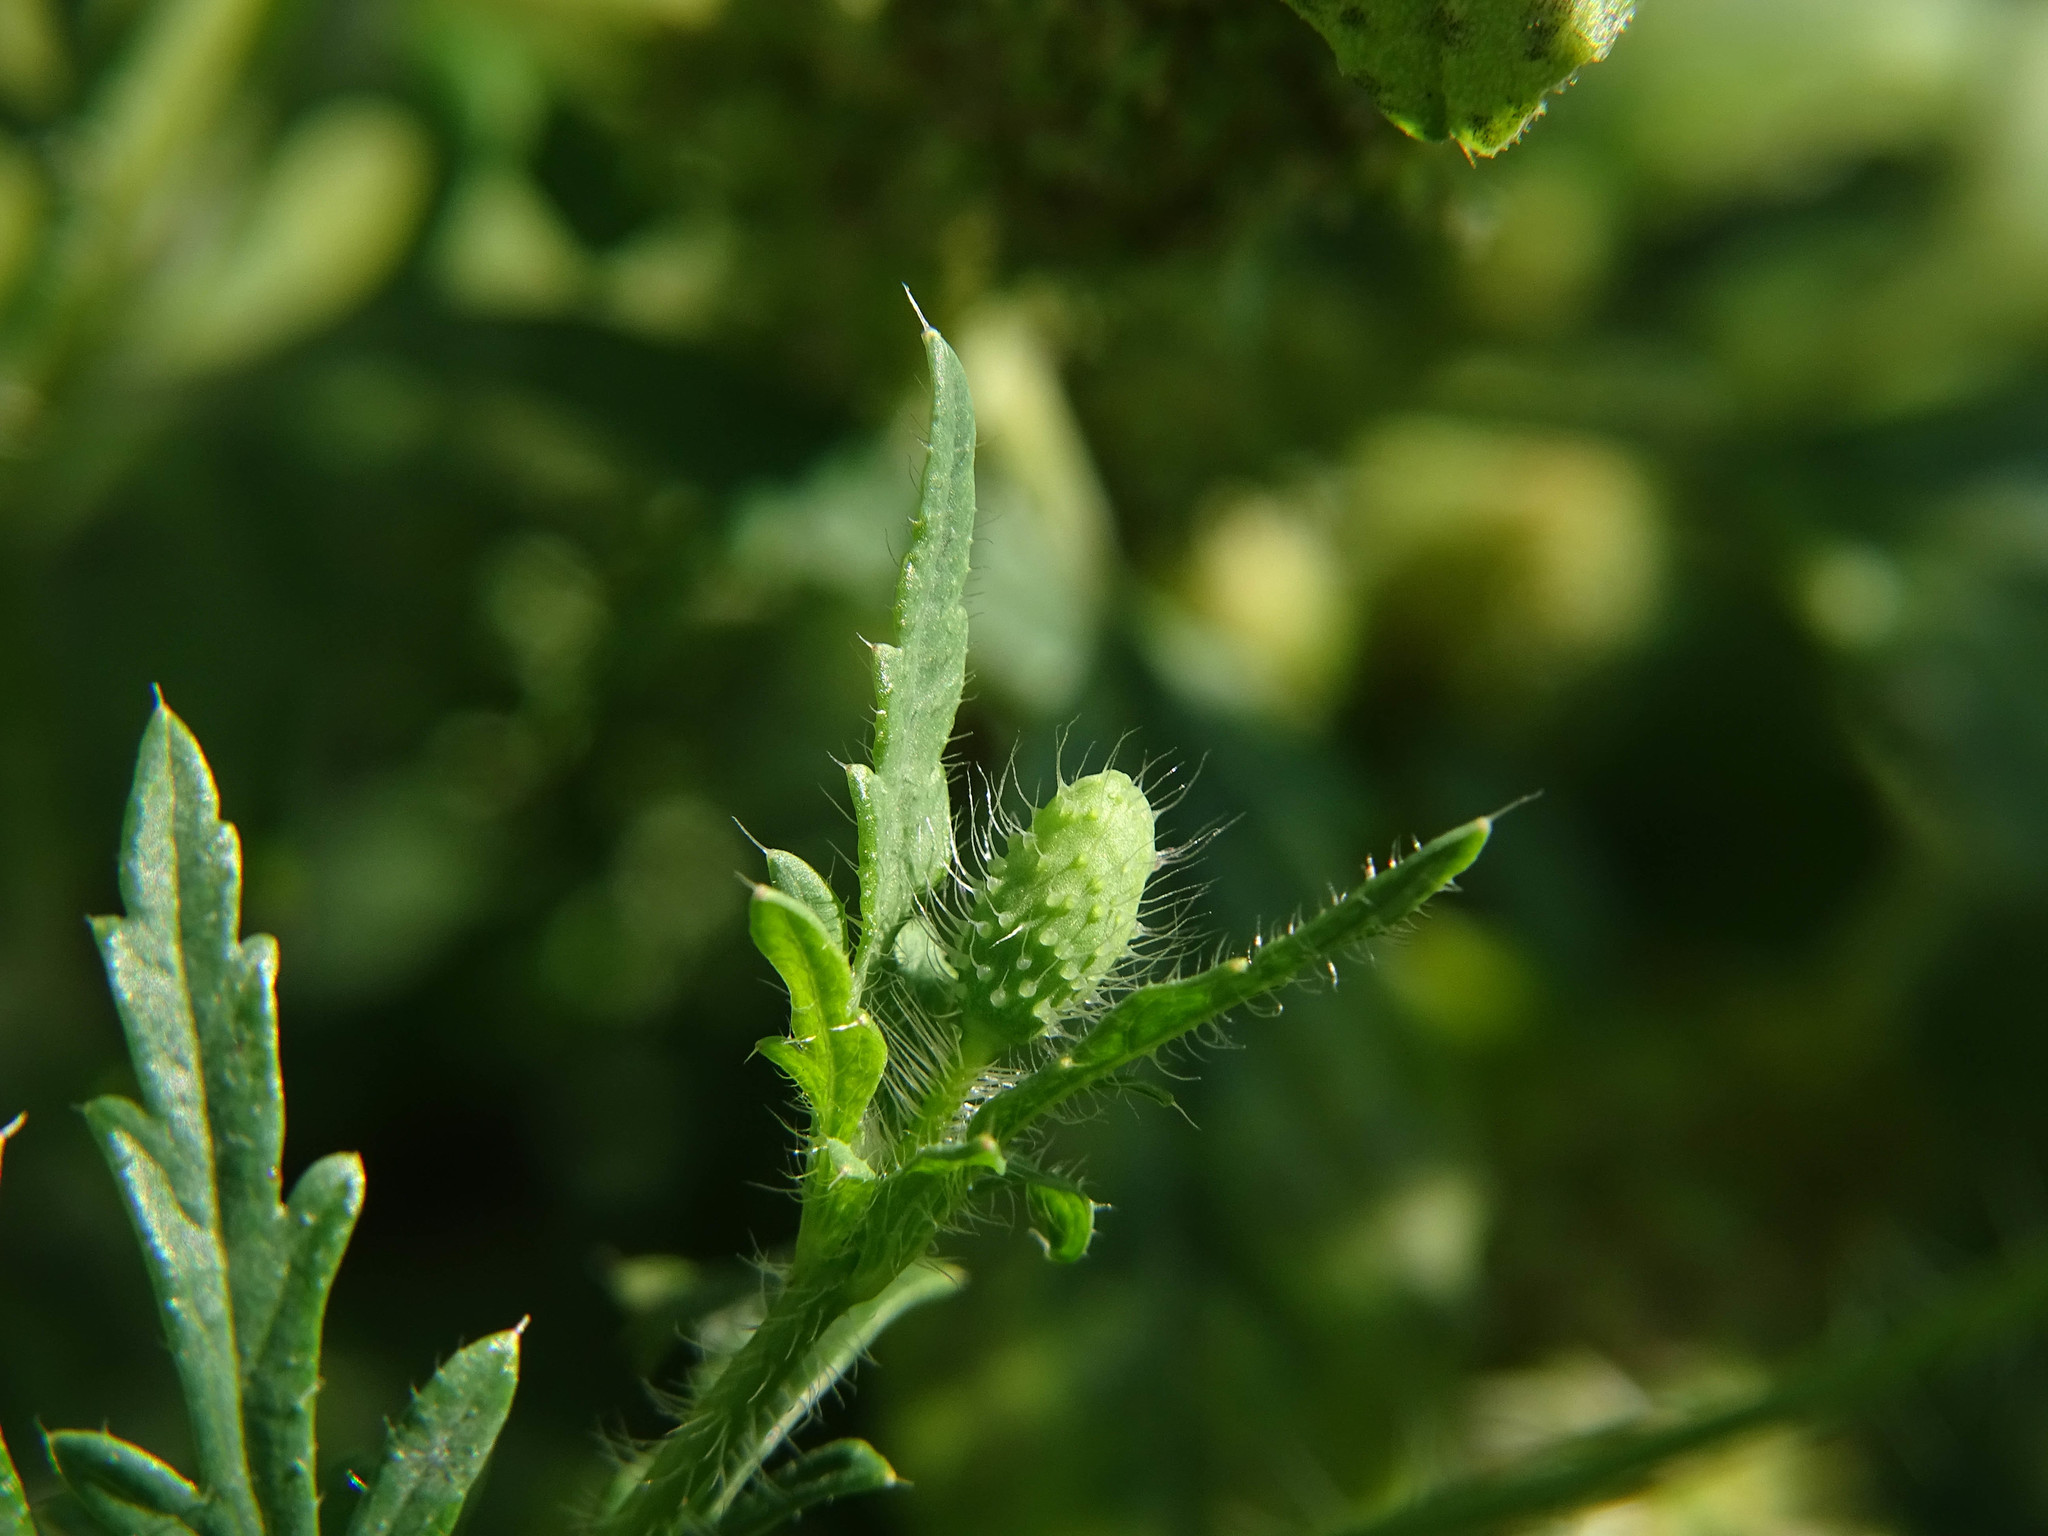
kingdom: Plantae
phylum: Tracheophyta
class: Magnoliopsida
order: Ranunculales
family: Papaveraceae
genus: Papaver
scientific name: Papaver rhoeas
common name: Corn poppy
